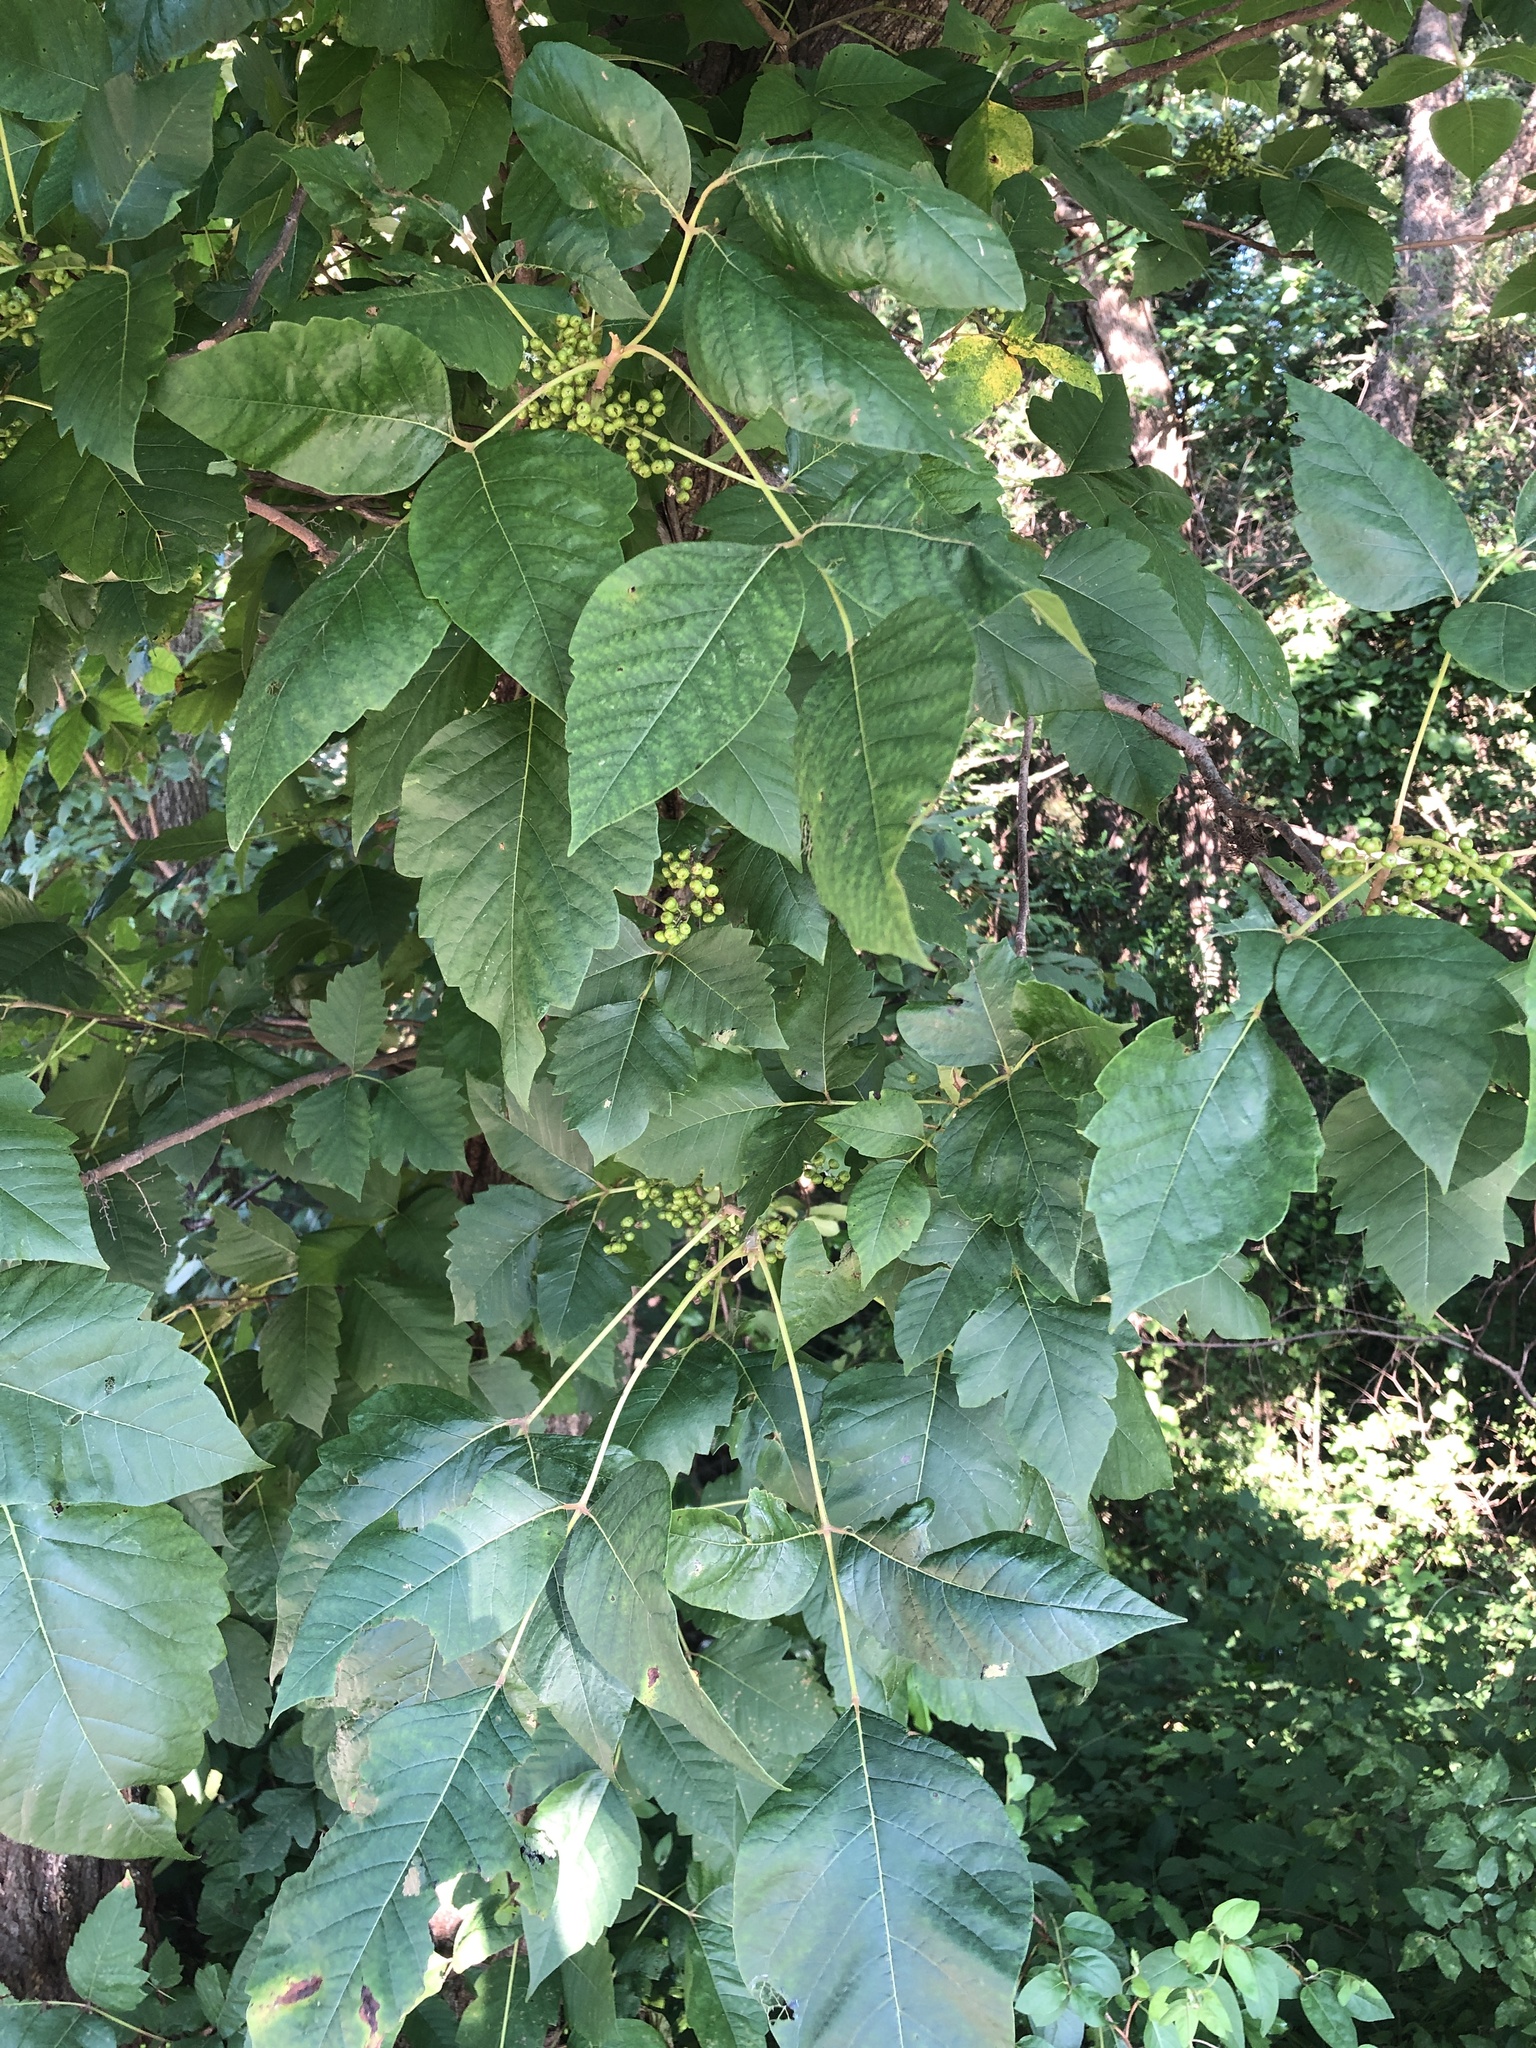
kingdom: Plantae
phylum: Tracheophyta
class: Magnoliopsida
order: Sapindales
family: Anacardiaceae
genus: Toxicodendron
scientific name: Toxicodendron radicans
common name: Poison ivy
